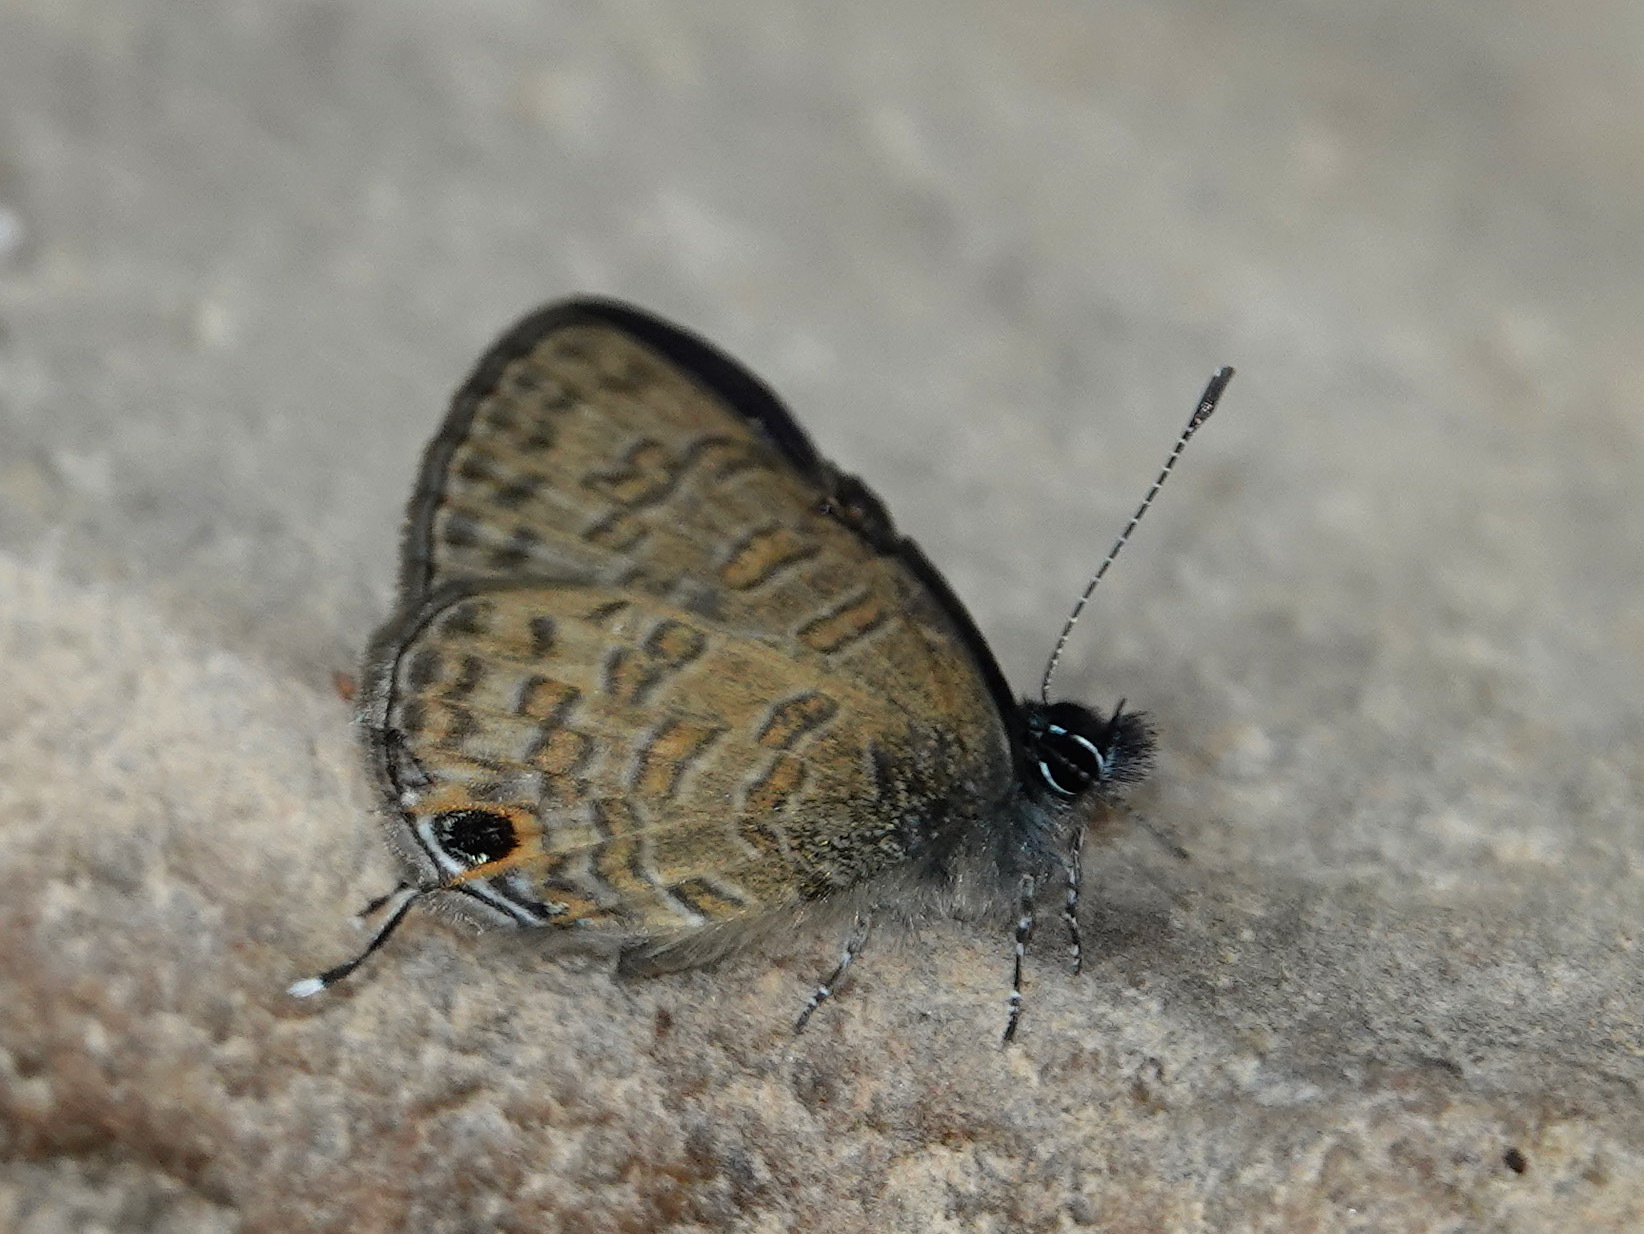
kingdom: Animalia
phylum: Arthropoda
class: Insecta
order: Lepidoptera
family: Lycaenidae
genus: Prosotas
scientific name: Prosotas nora
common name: Common line blue
